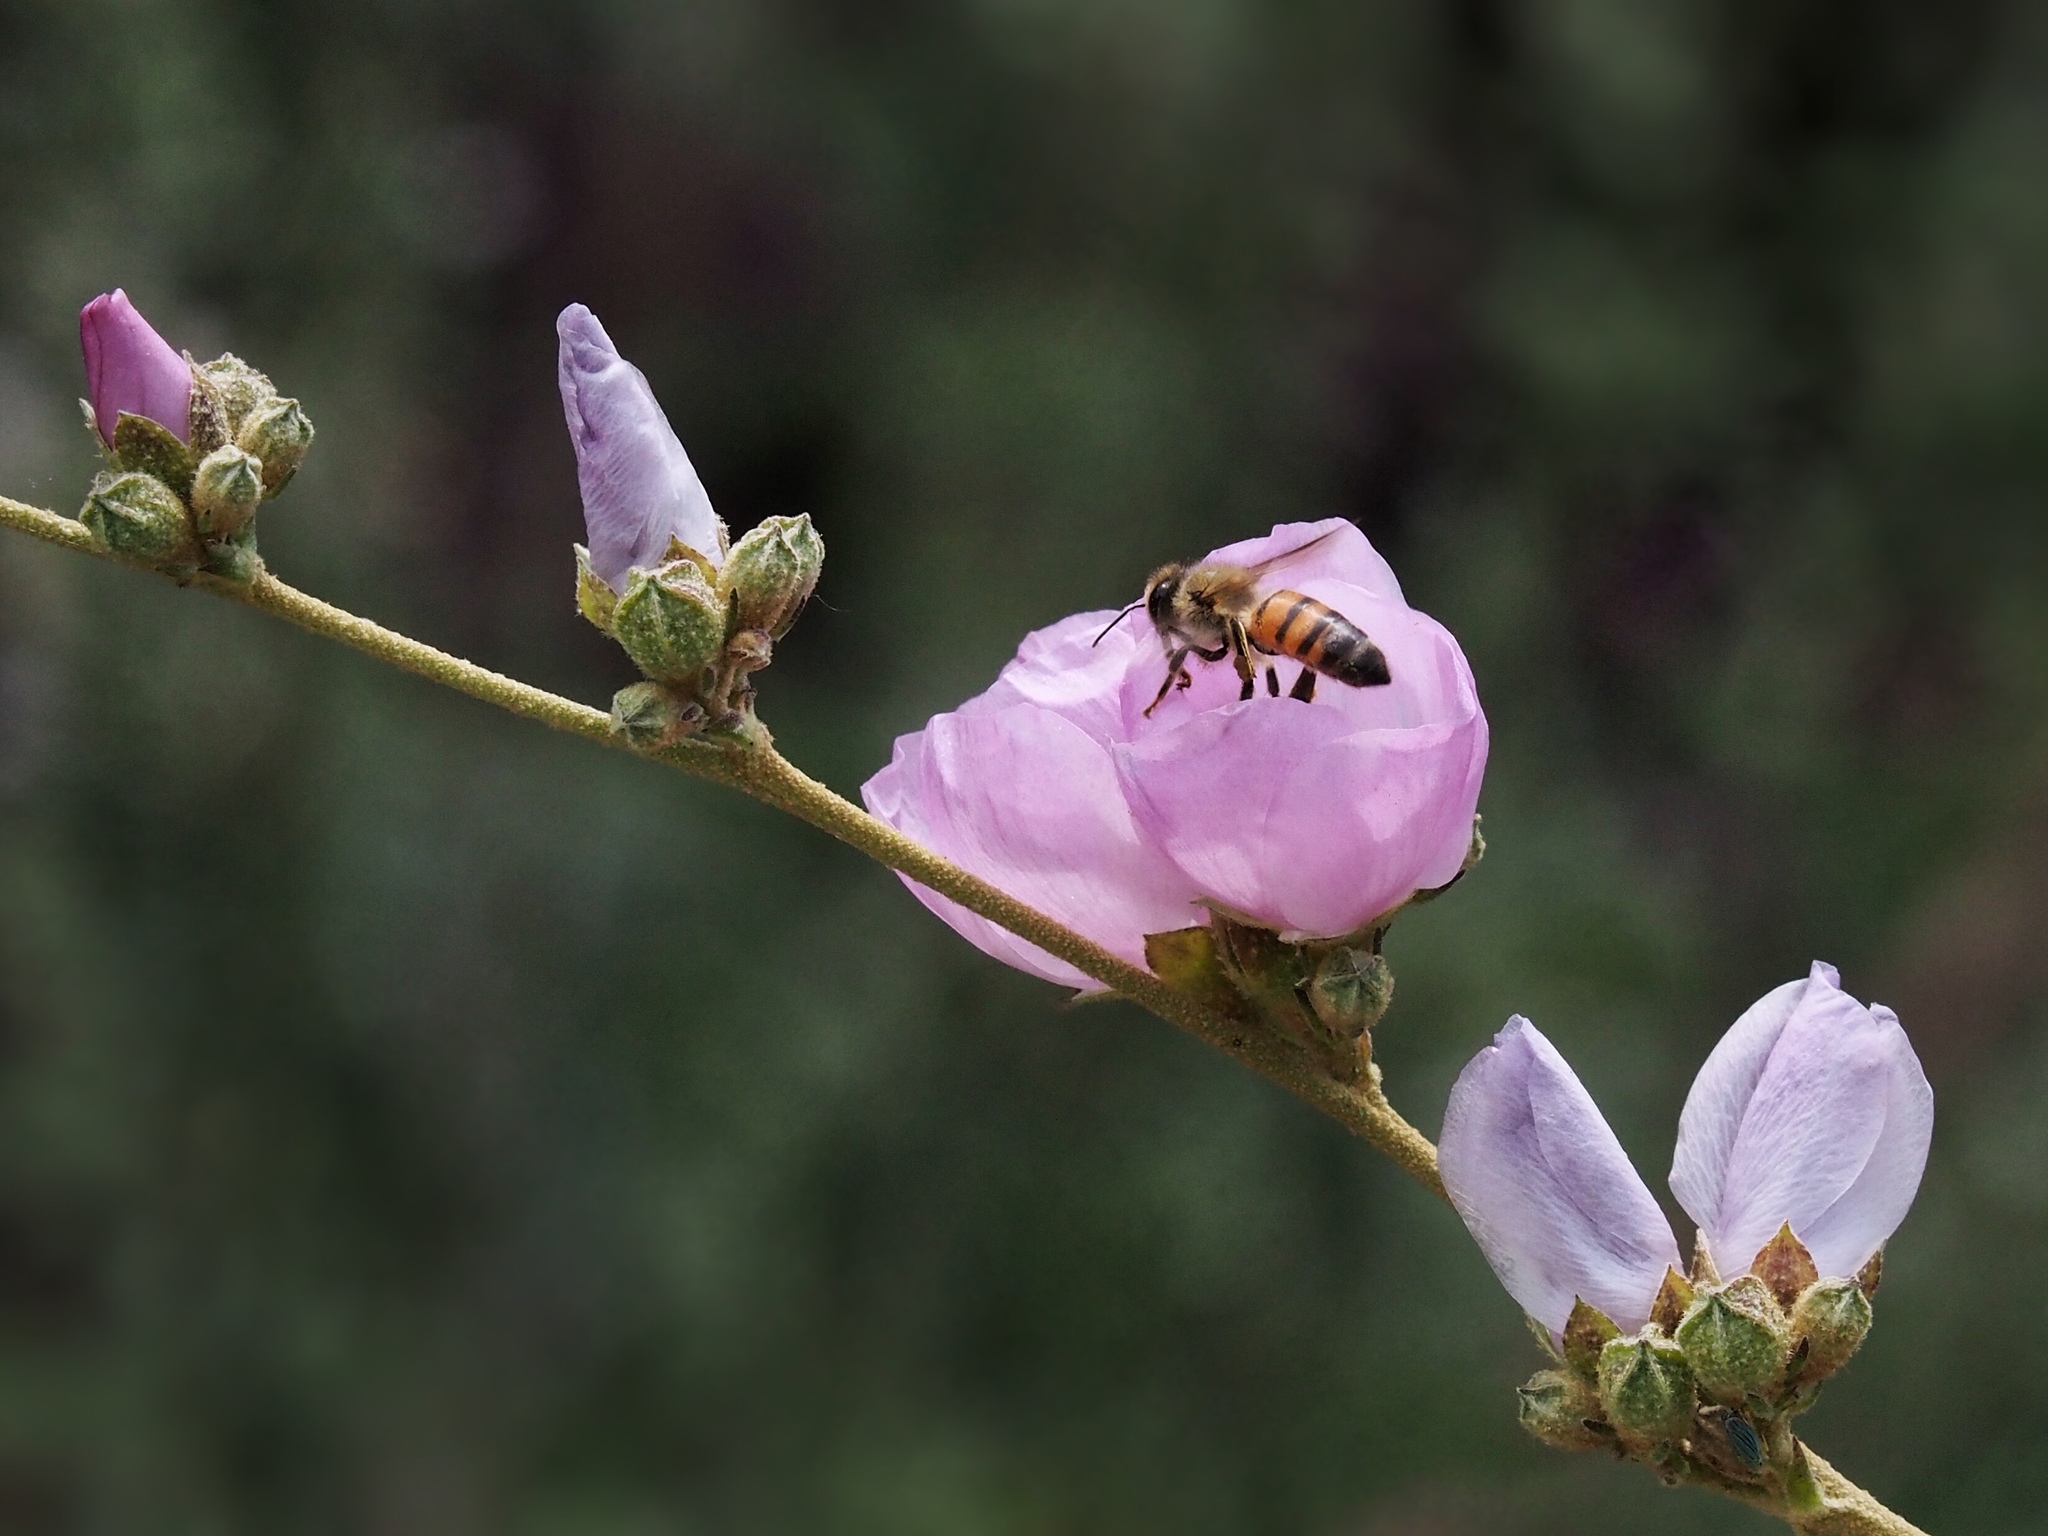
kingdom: Animalia
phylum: Arthropoda
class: Insecta
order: Hymenoptera
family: Apidae
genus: Apis
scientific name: Apis mellifera
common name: Honey bee
